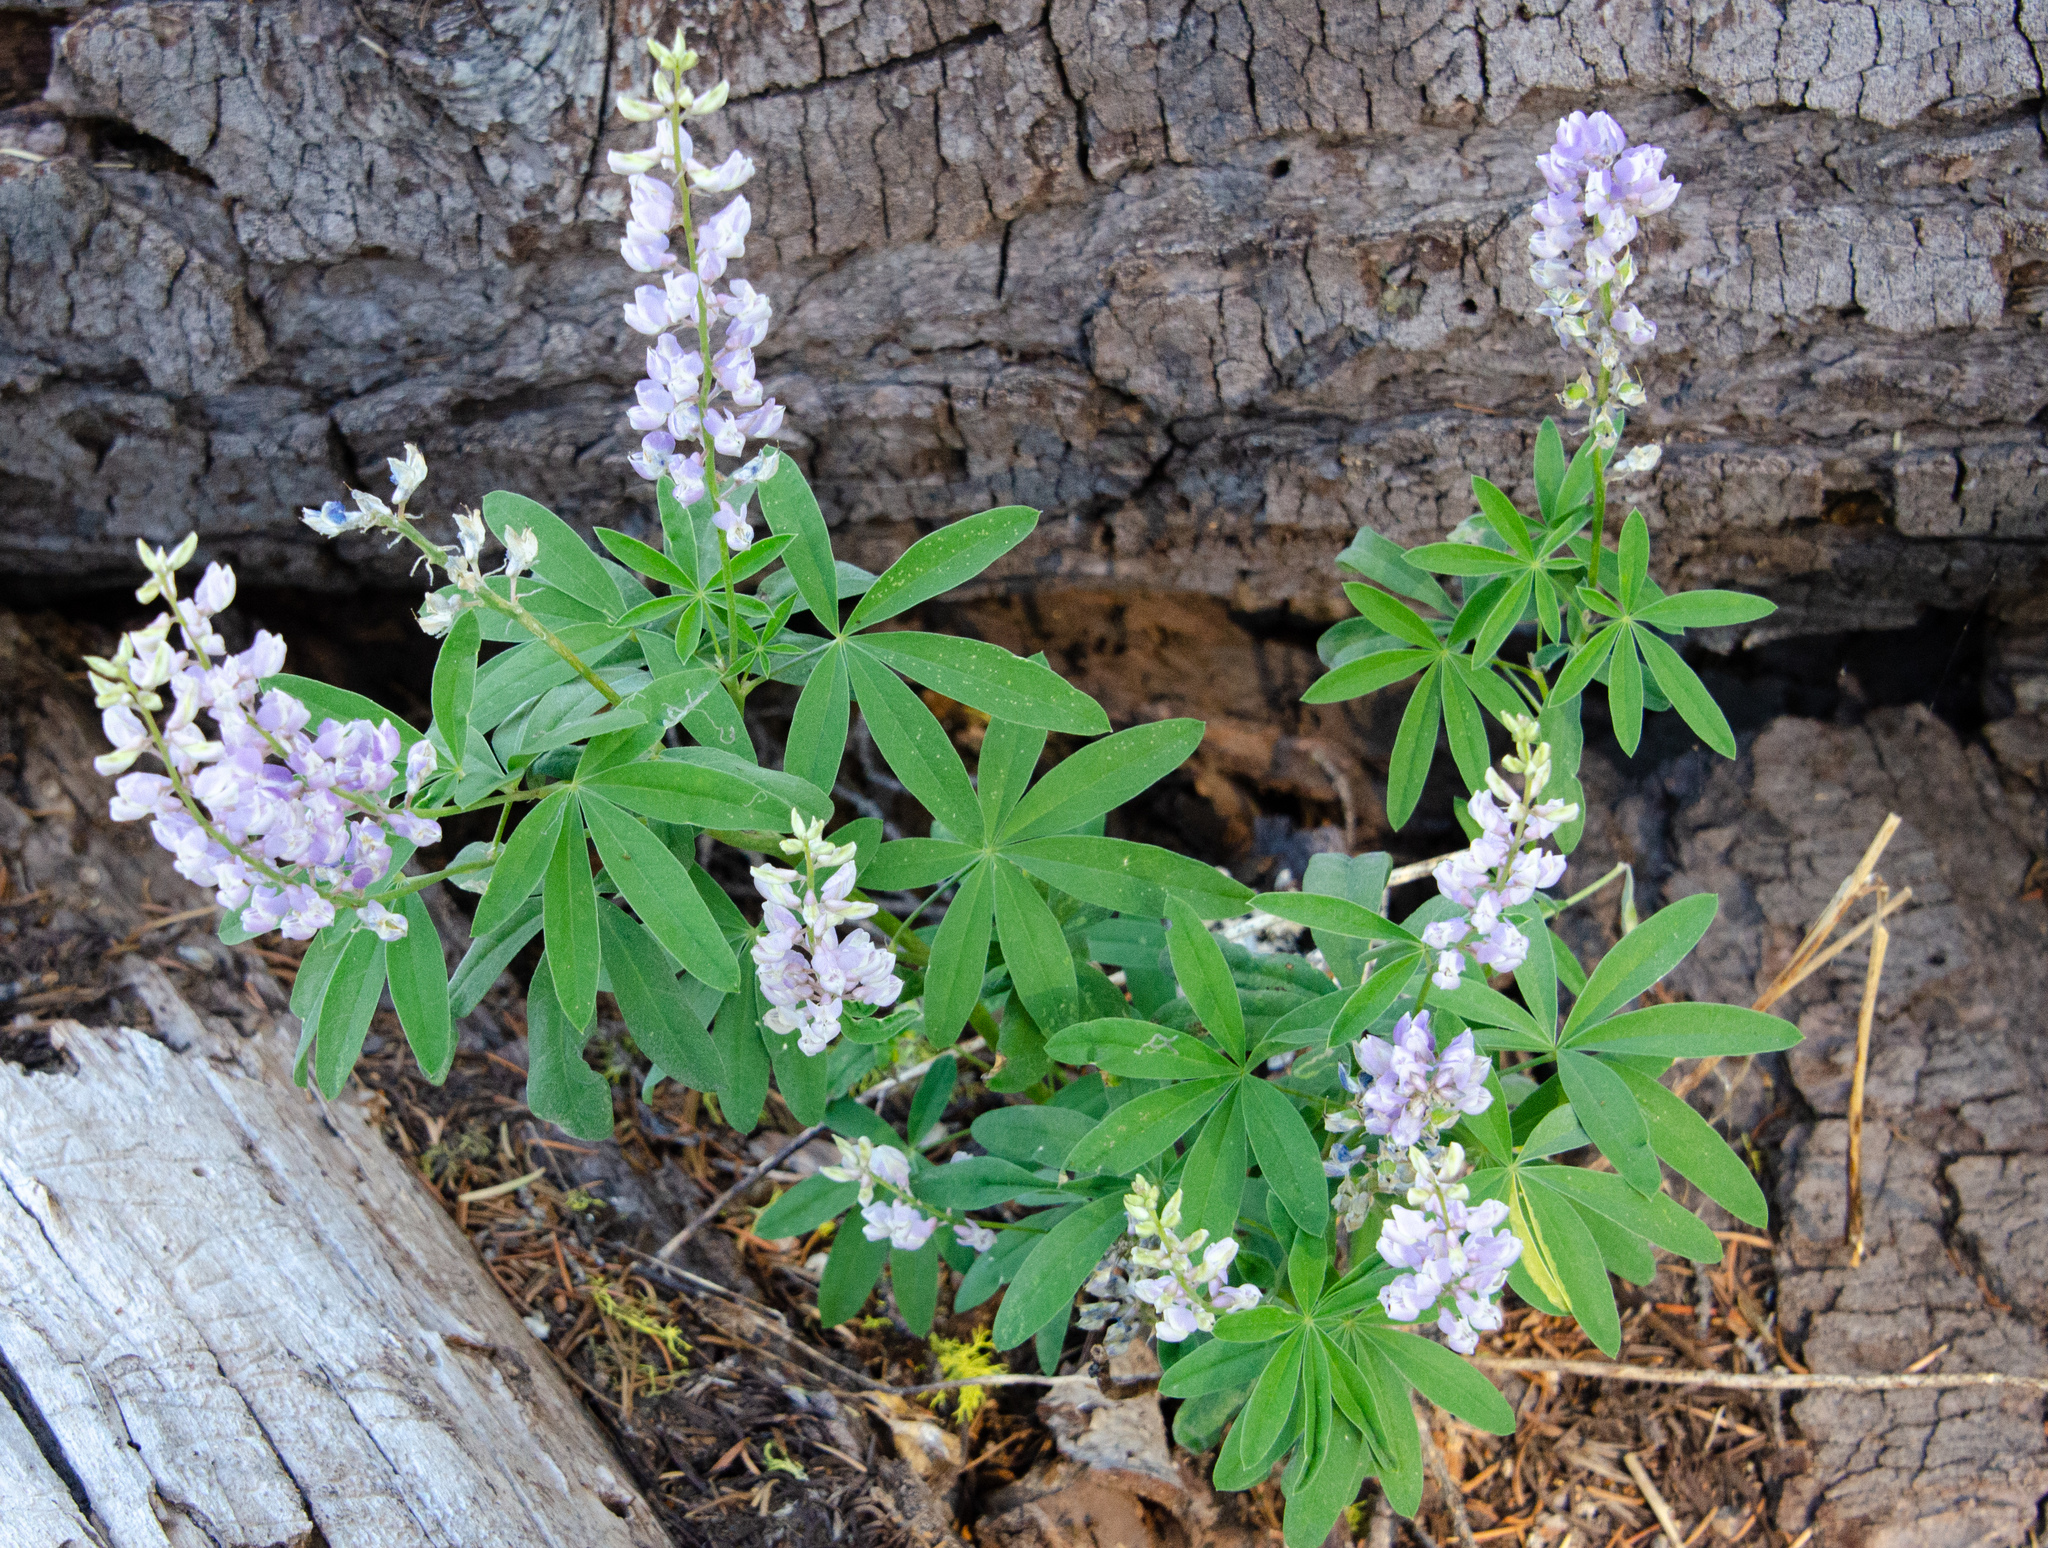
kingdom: Plantae
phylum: Tracheophyta
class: Magnoliopsida
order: Fabales
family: Fabaceae
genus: Lupinus
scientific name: Lupinus arbustus
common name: Montana lupine
